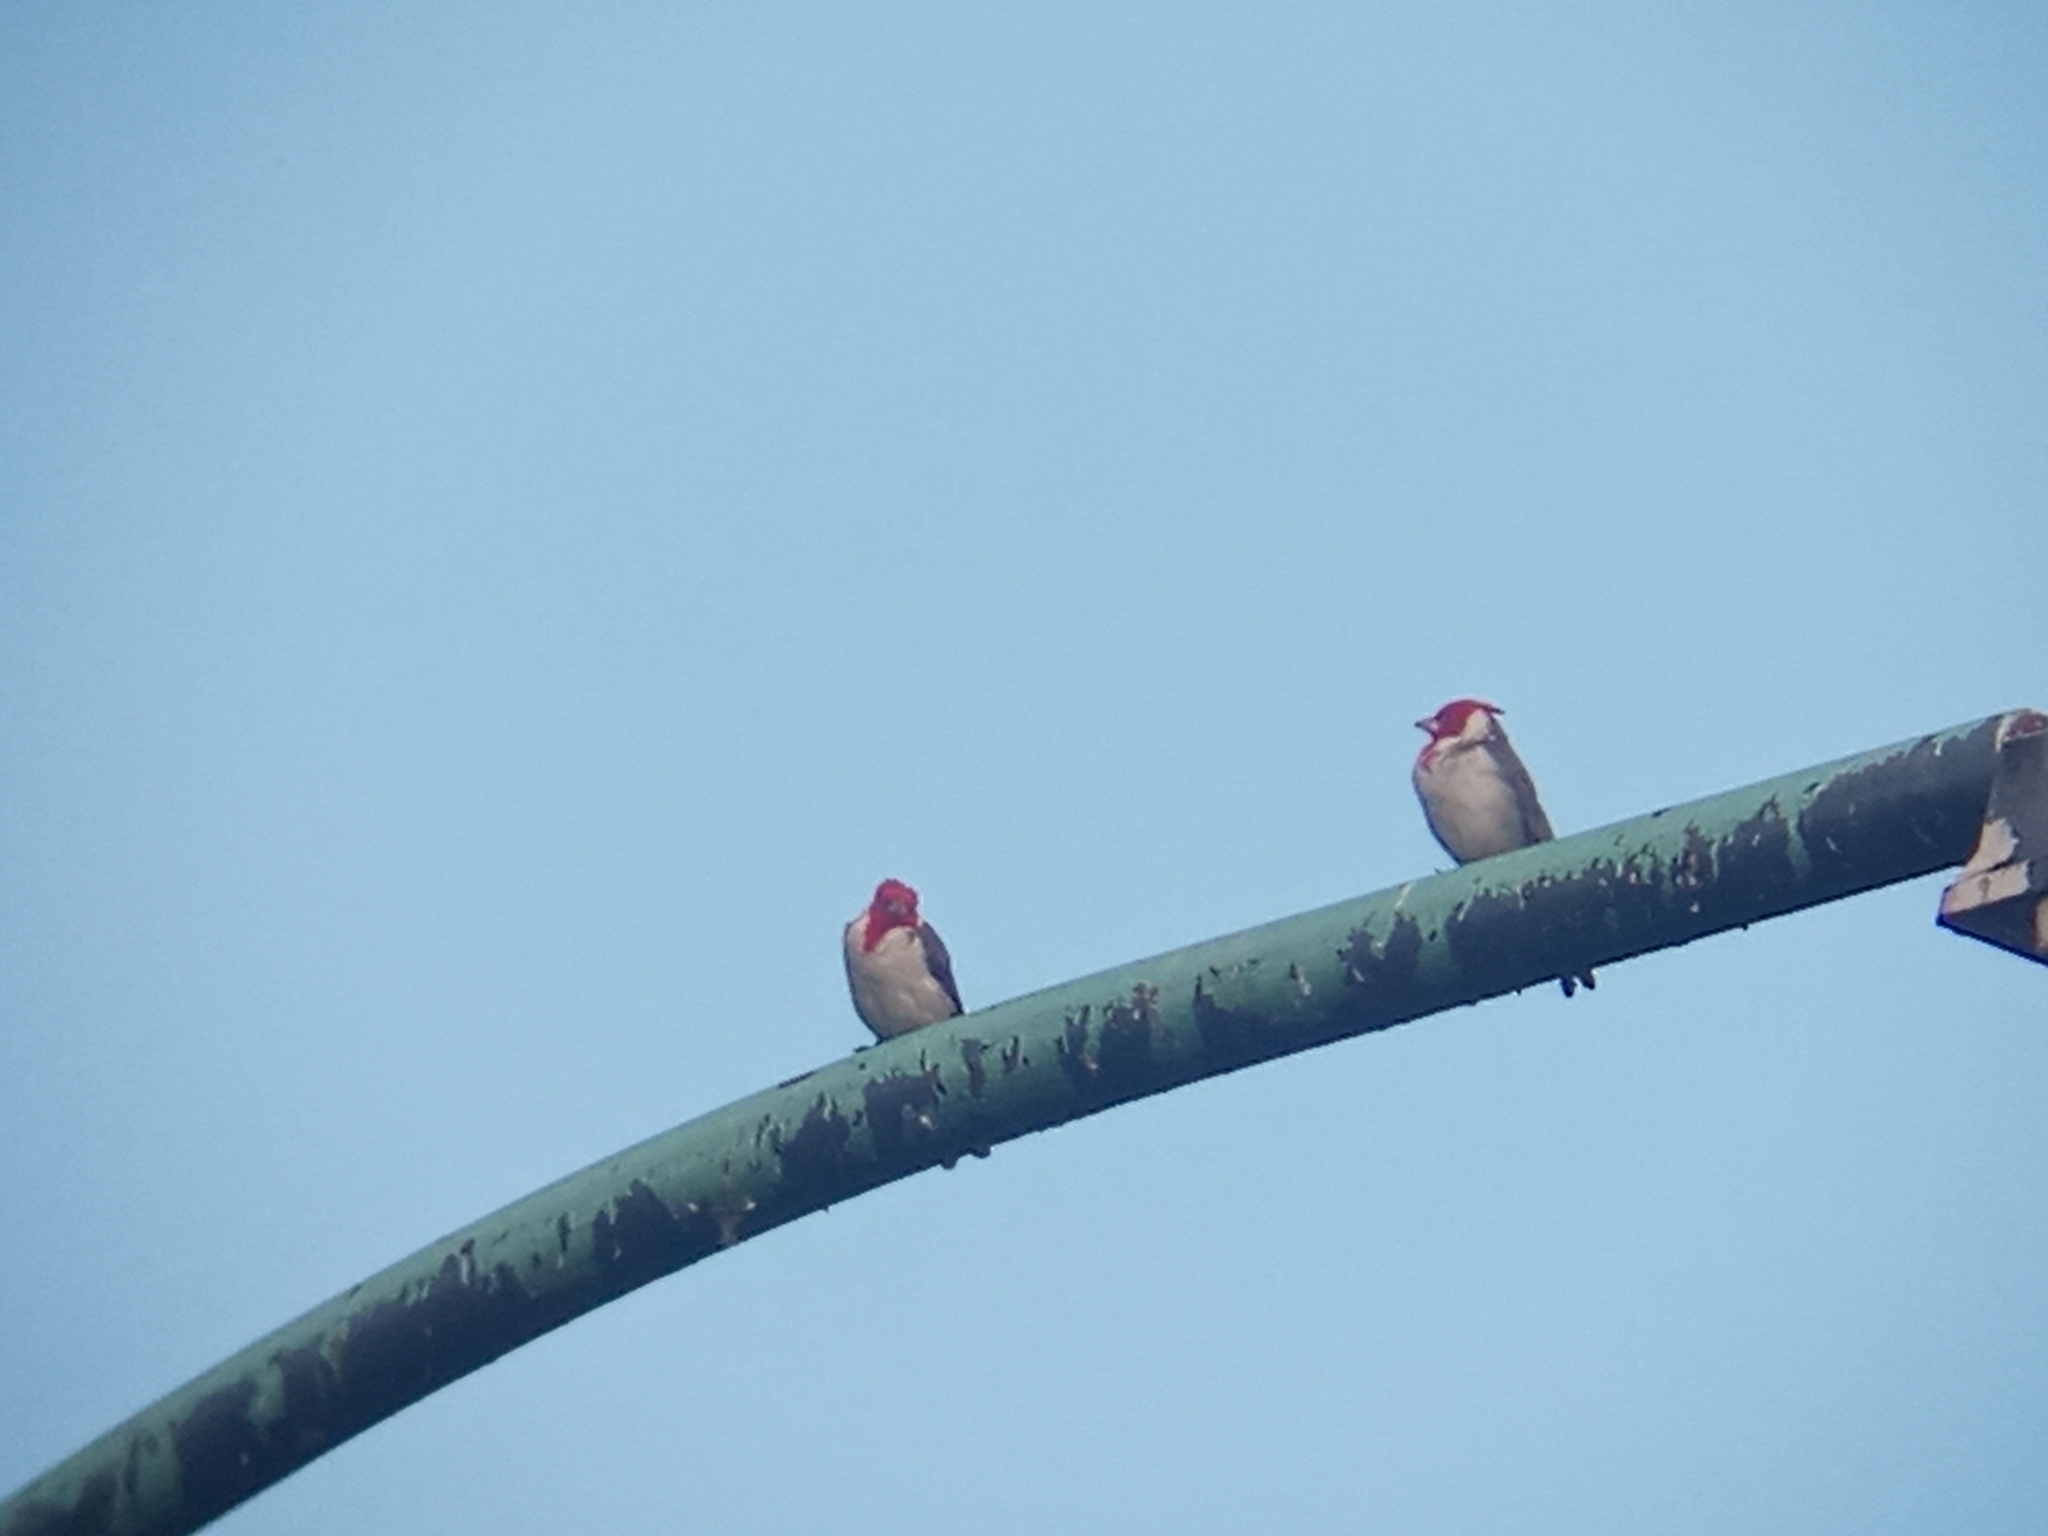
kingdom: Animalia
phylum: Chordata
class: Aves
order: Passeriformes
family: Thraupidae
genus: Paroaria
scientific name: Paroaria coronata
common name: Red-crested cardinal
